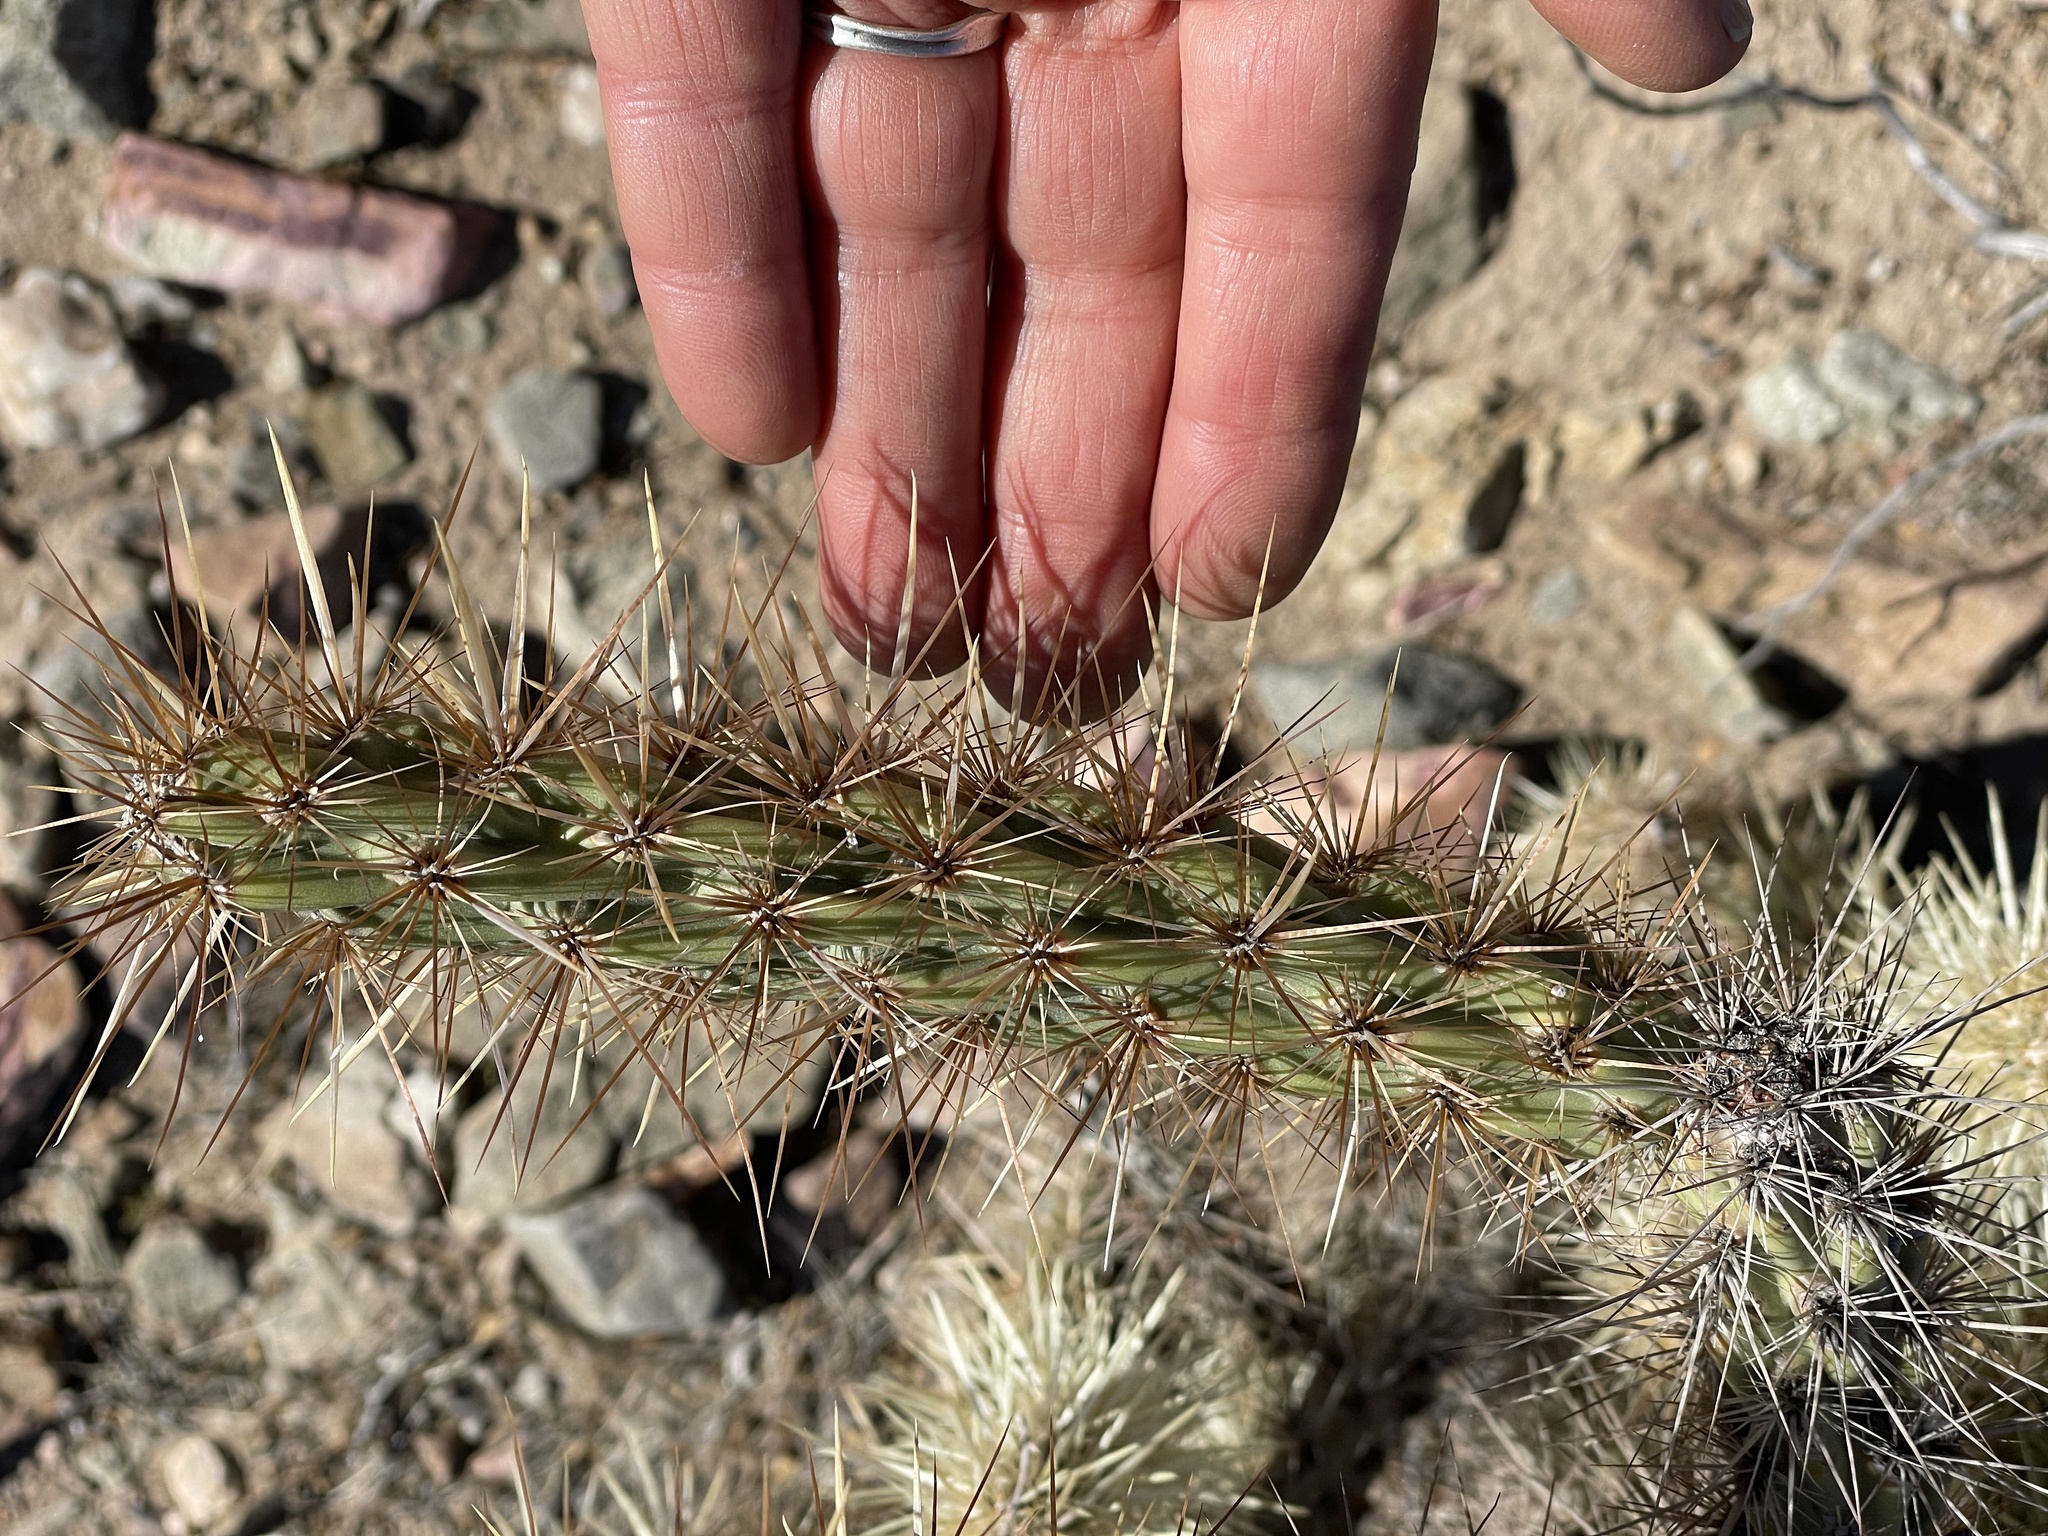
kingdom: Plantae
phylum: Tracheophyta
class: Magnoliopsida
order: Caryophyllales
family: Cactaceae
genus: Cylindropuntia
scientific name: Cylindropuntia acanthocarpa
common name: Buckhorn cholla
